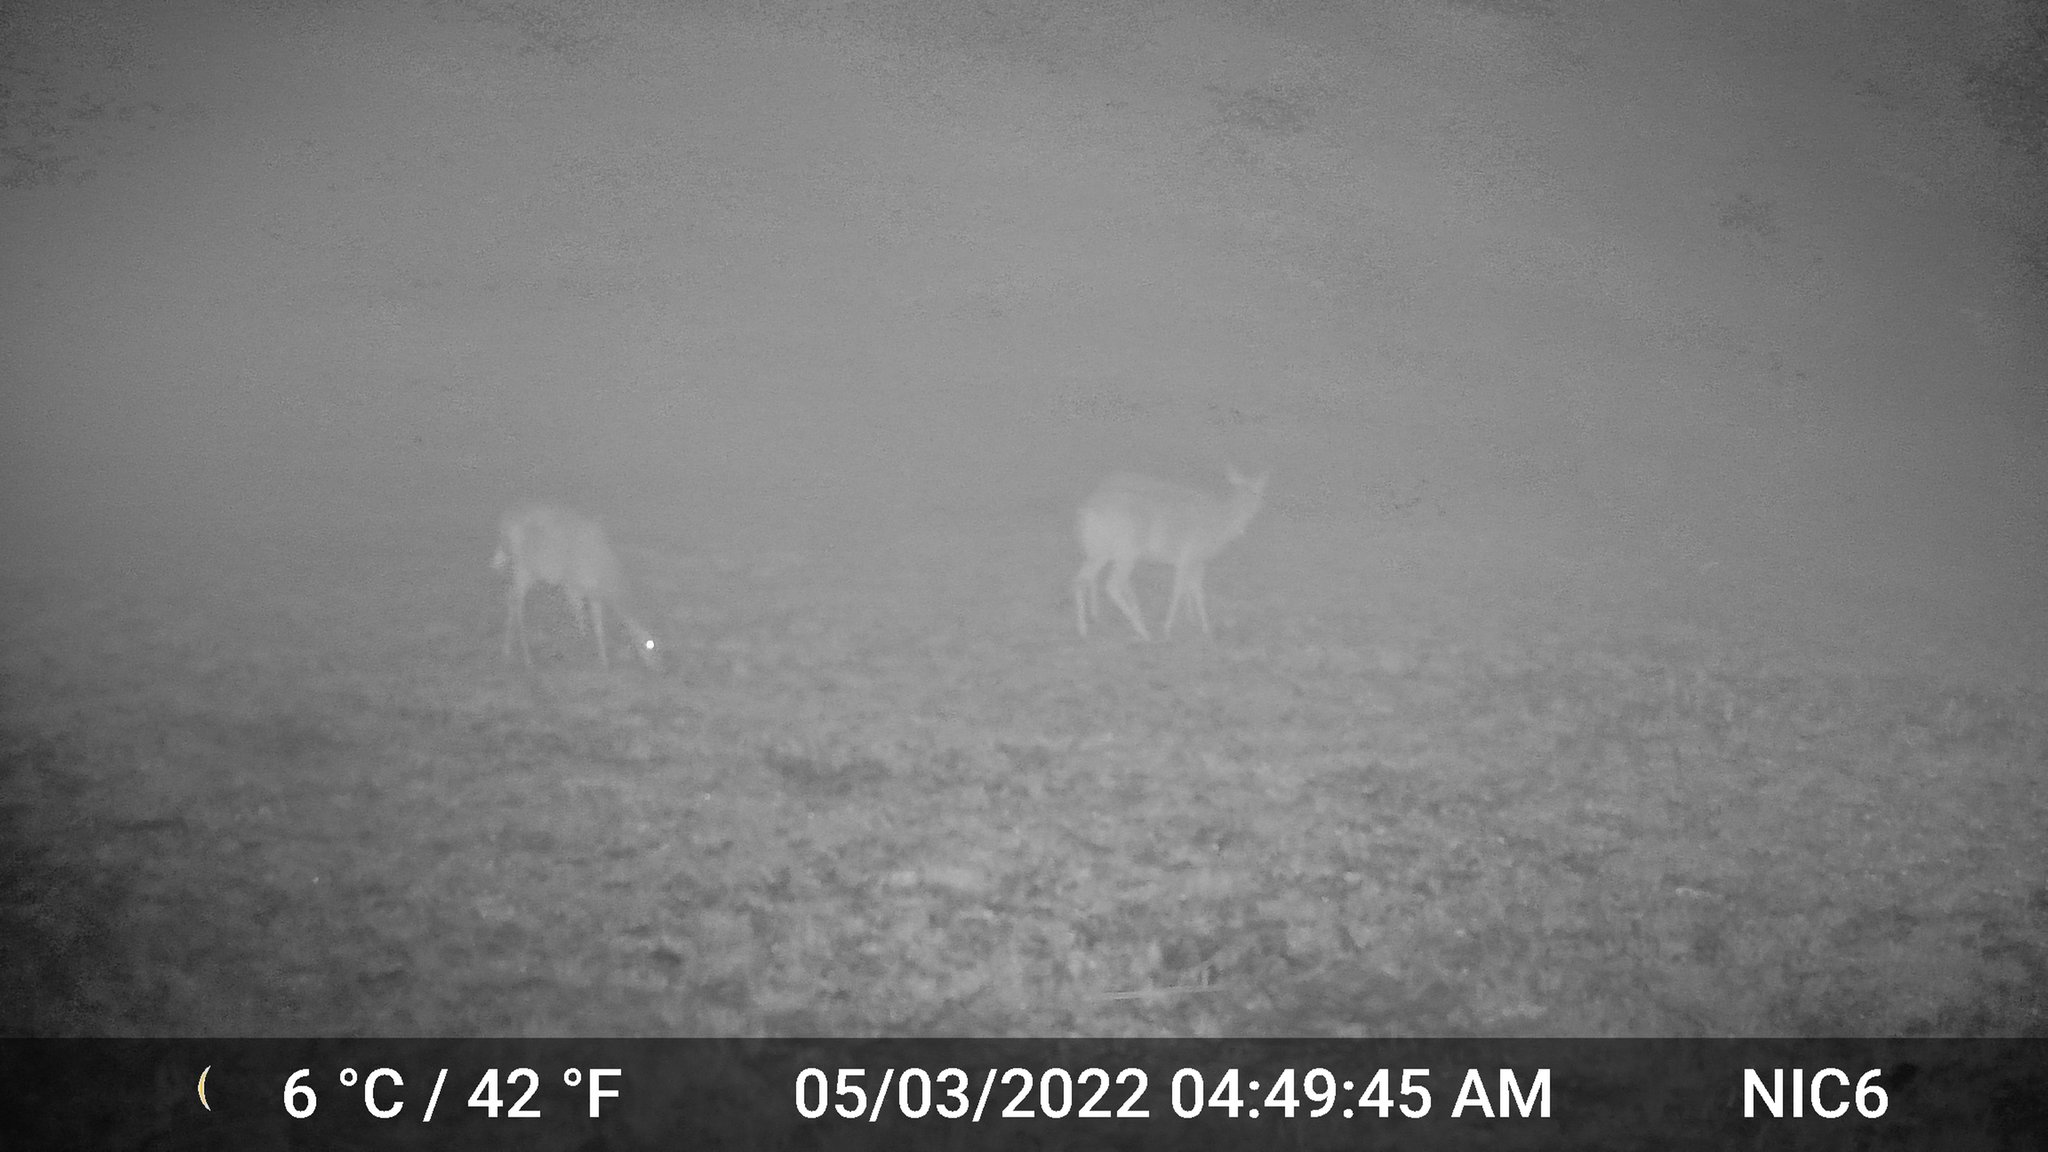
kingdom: Animalia
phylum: Chordata
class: Mammalia
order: Artiodactyla
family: Cervidae
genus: Odocoileus
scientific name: Odocoileus virginianus
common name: White-tailed deer
